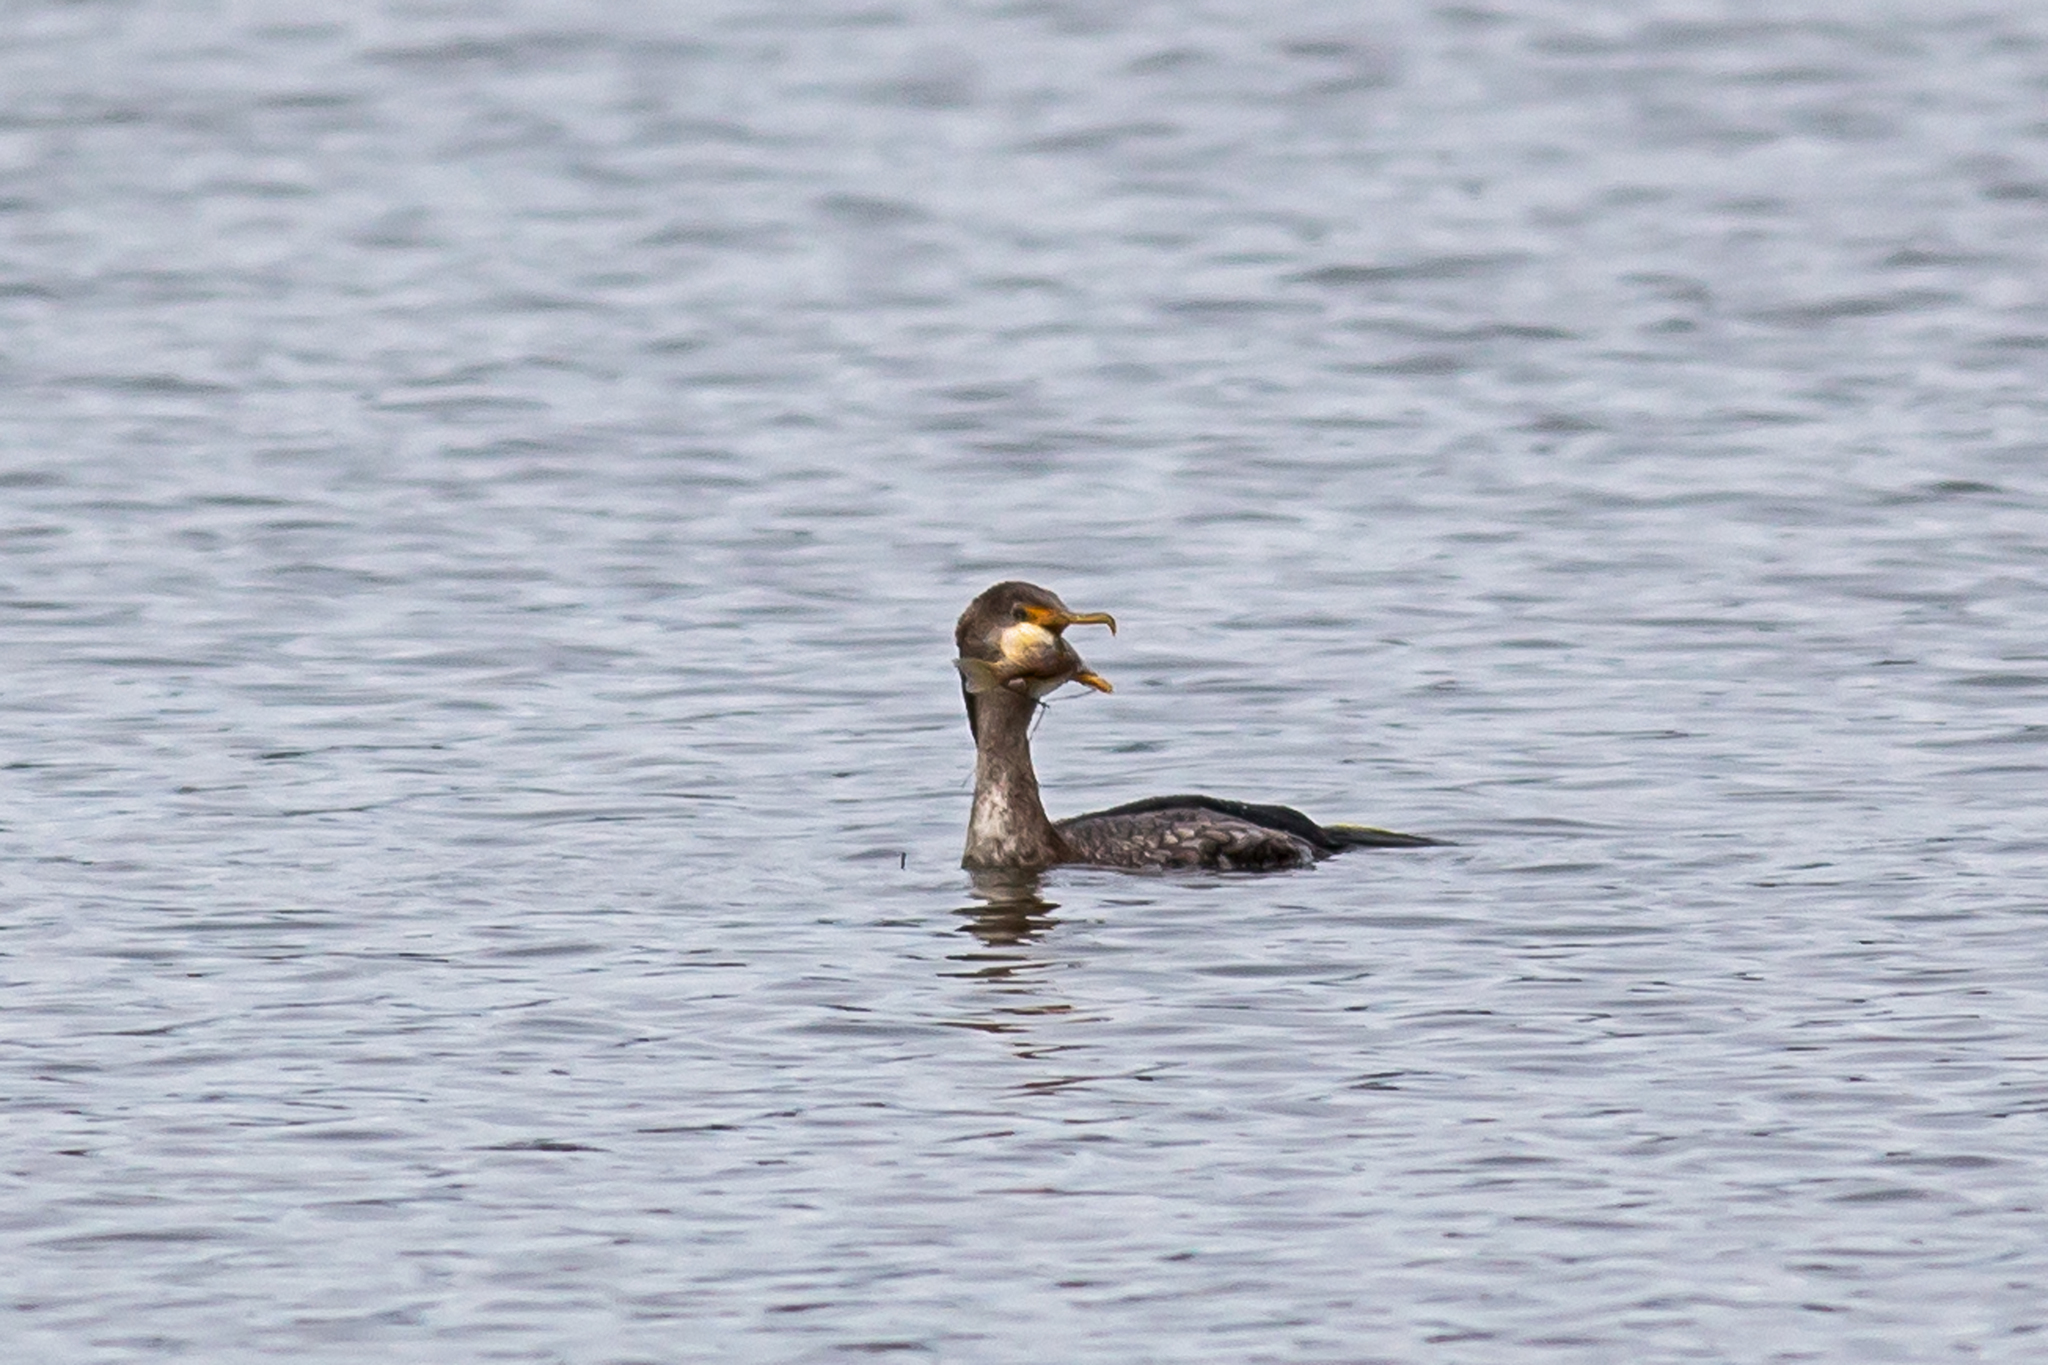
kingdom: Animalia
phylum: Chordata
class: Aves
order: Suliformes
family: Phalacrocoracidae
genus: Phalacrocorax
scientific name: Phalacrocorax auritus
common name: Double-crested cormorant
